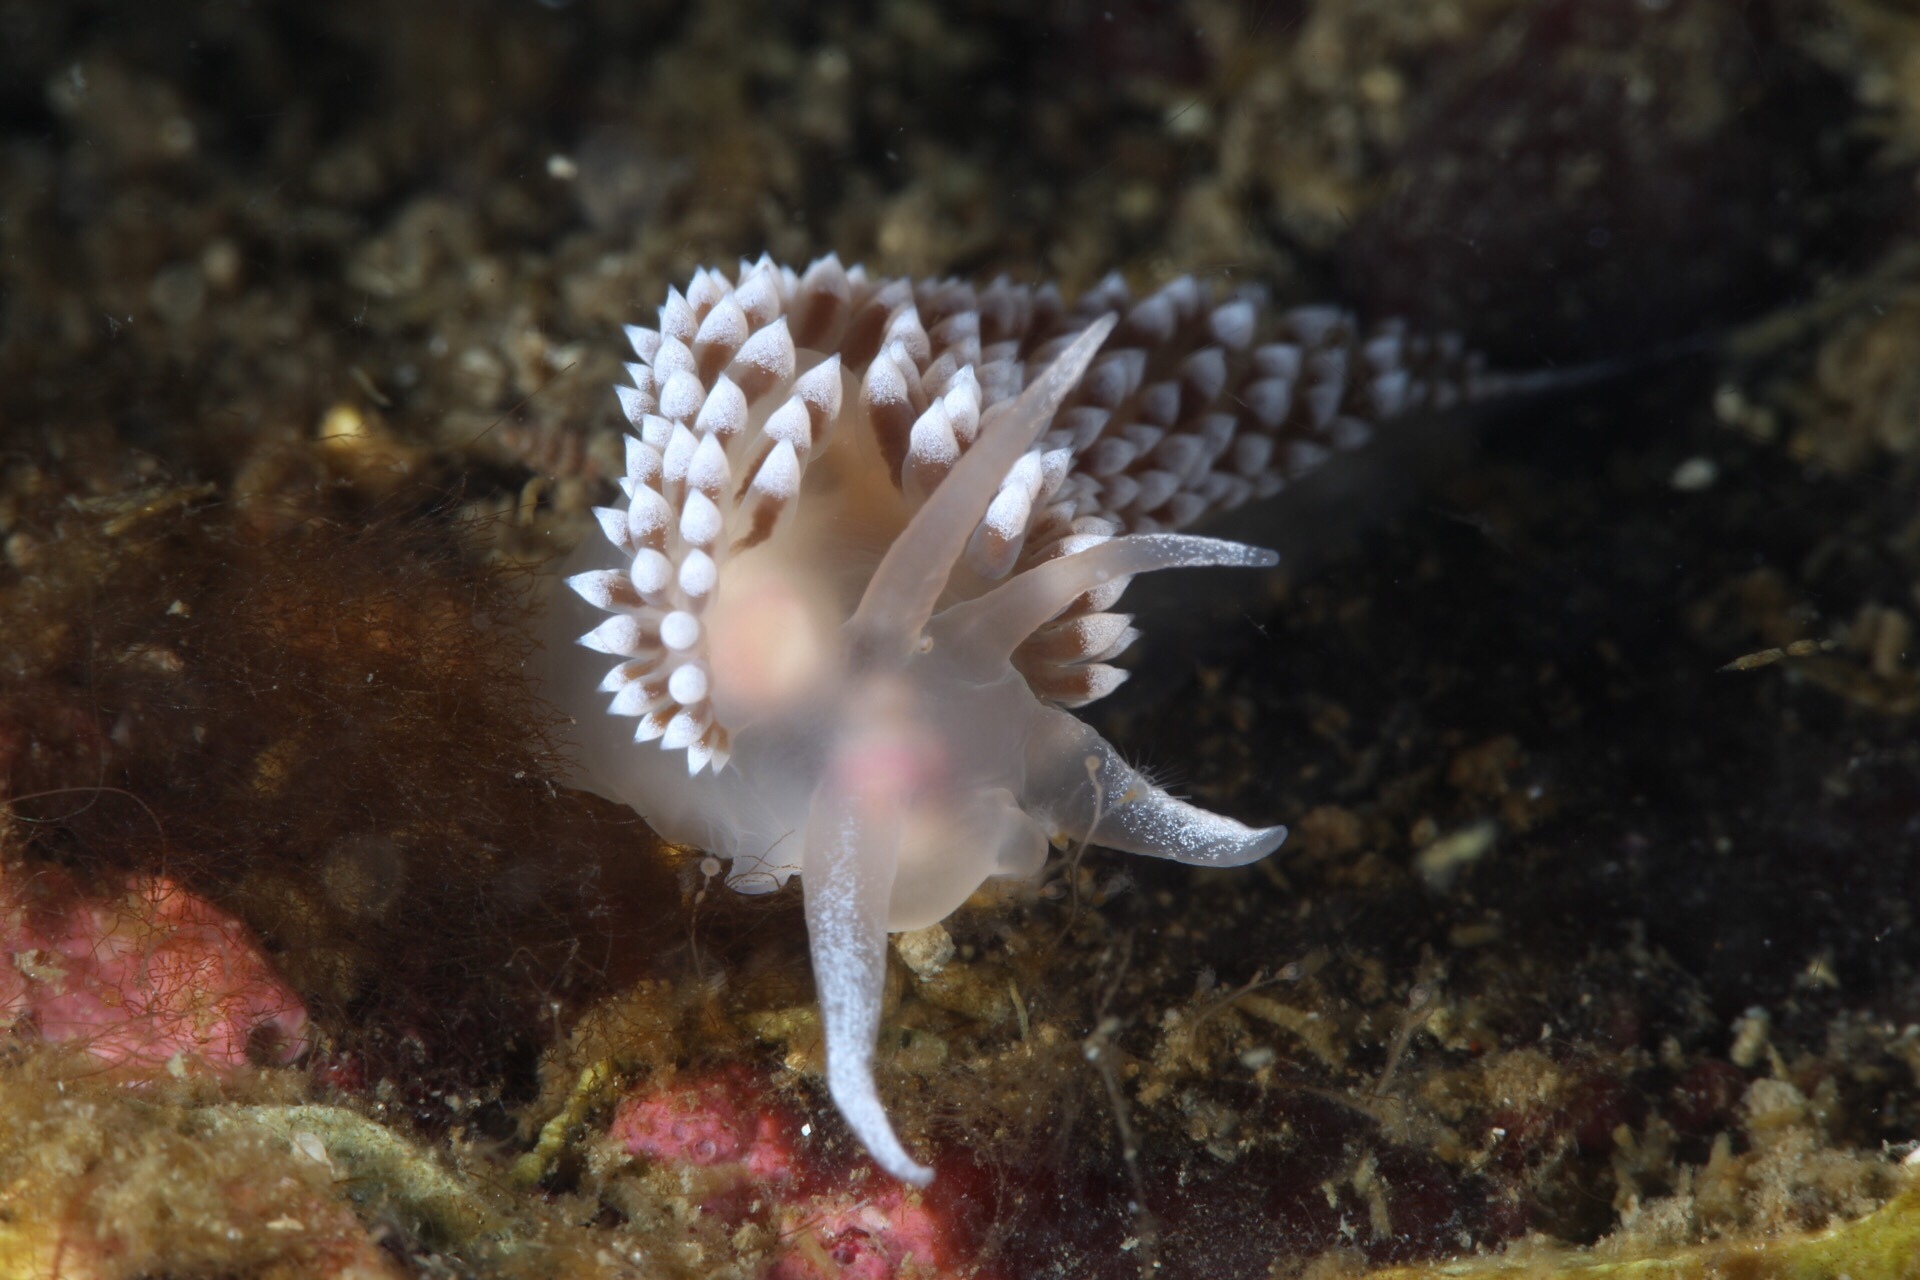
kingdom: Animalia
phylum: Mollusca
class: Gastropoda
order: Nudibranchia
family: Coryphellidae
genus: Coryphella
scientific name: Coryphella verrucosa
